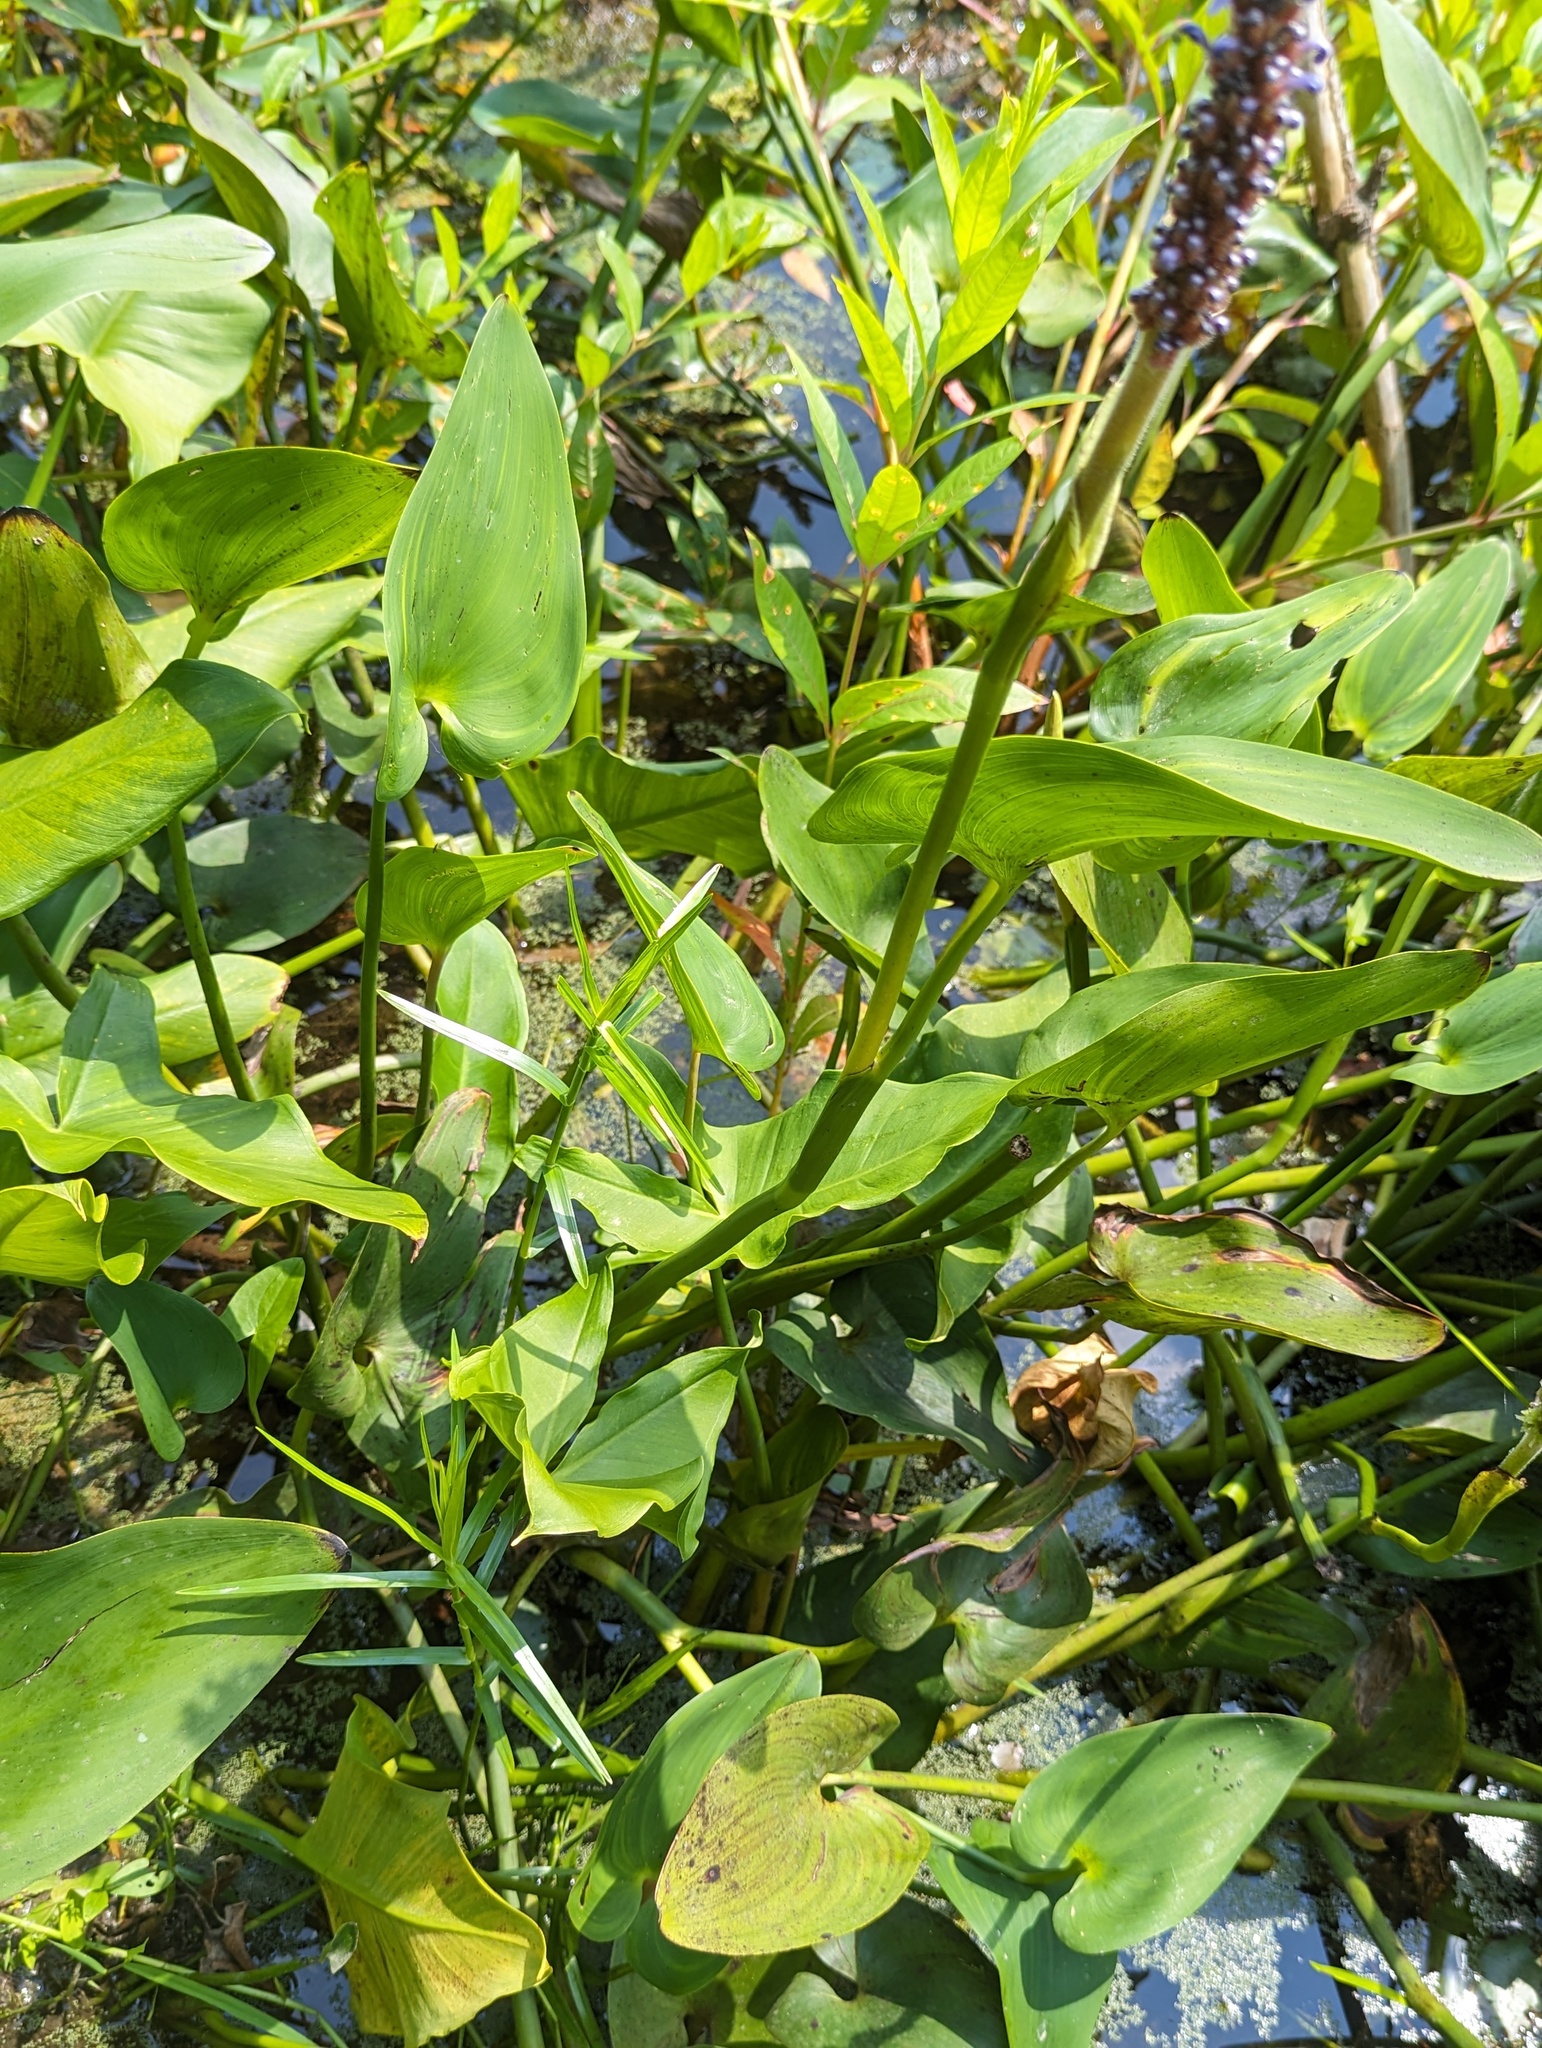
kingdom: Plantae
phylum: Tracheophyta
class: Liliopsida
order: Commelinales
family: Pontederiaceae
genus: Pontederia
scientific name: Pontederia cordata
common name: Pickerelweed
